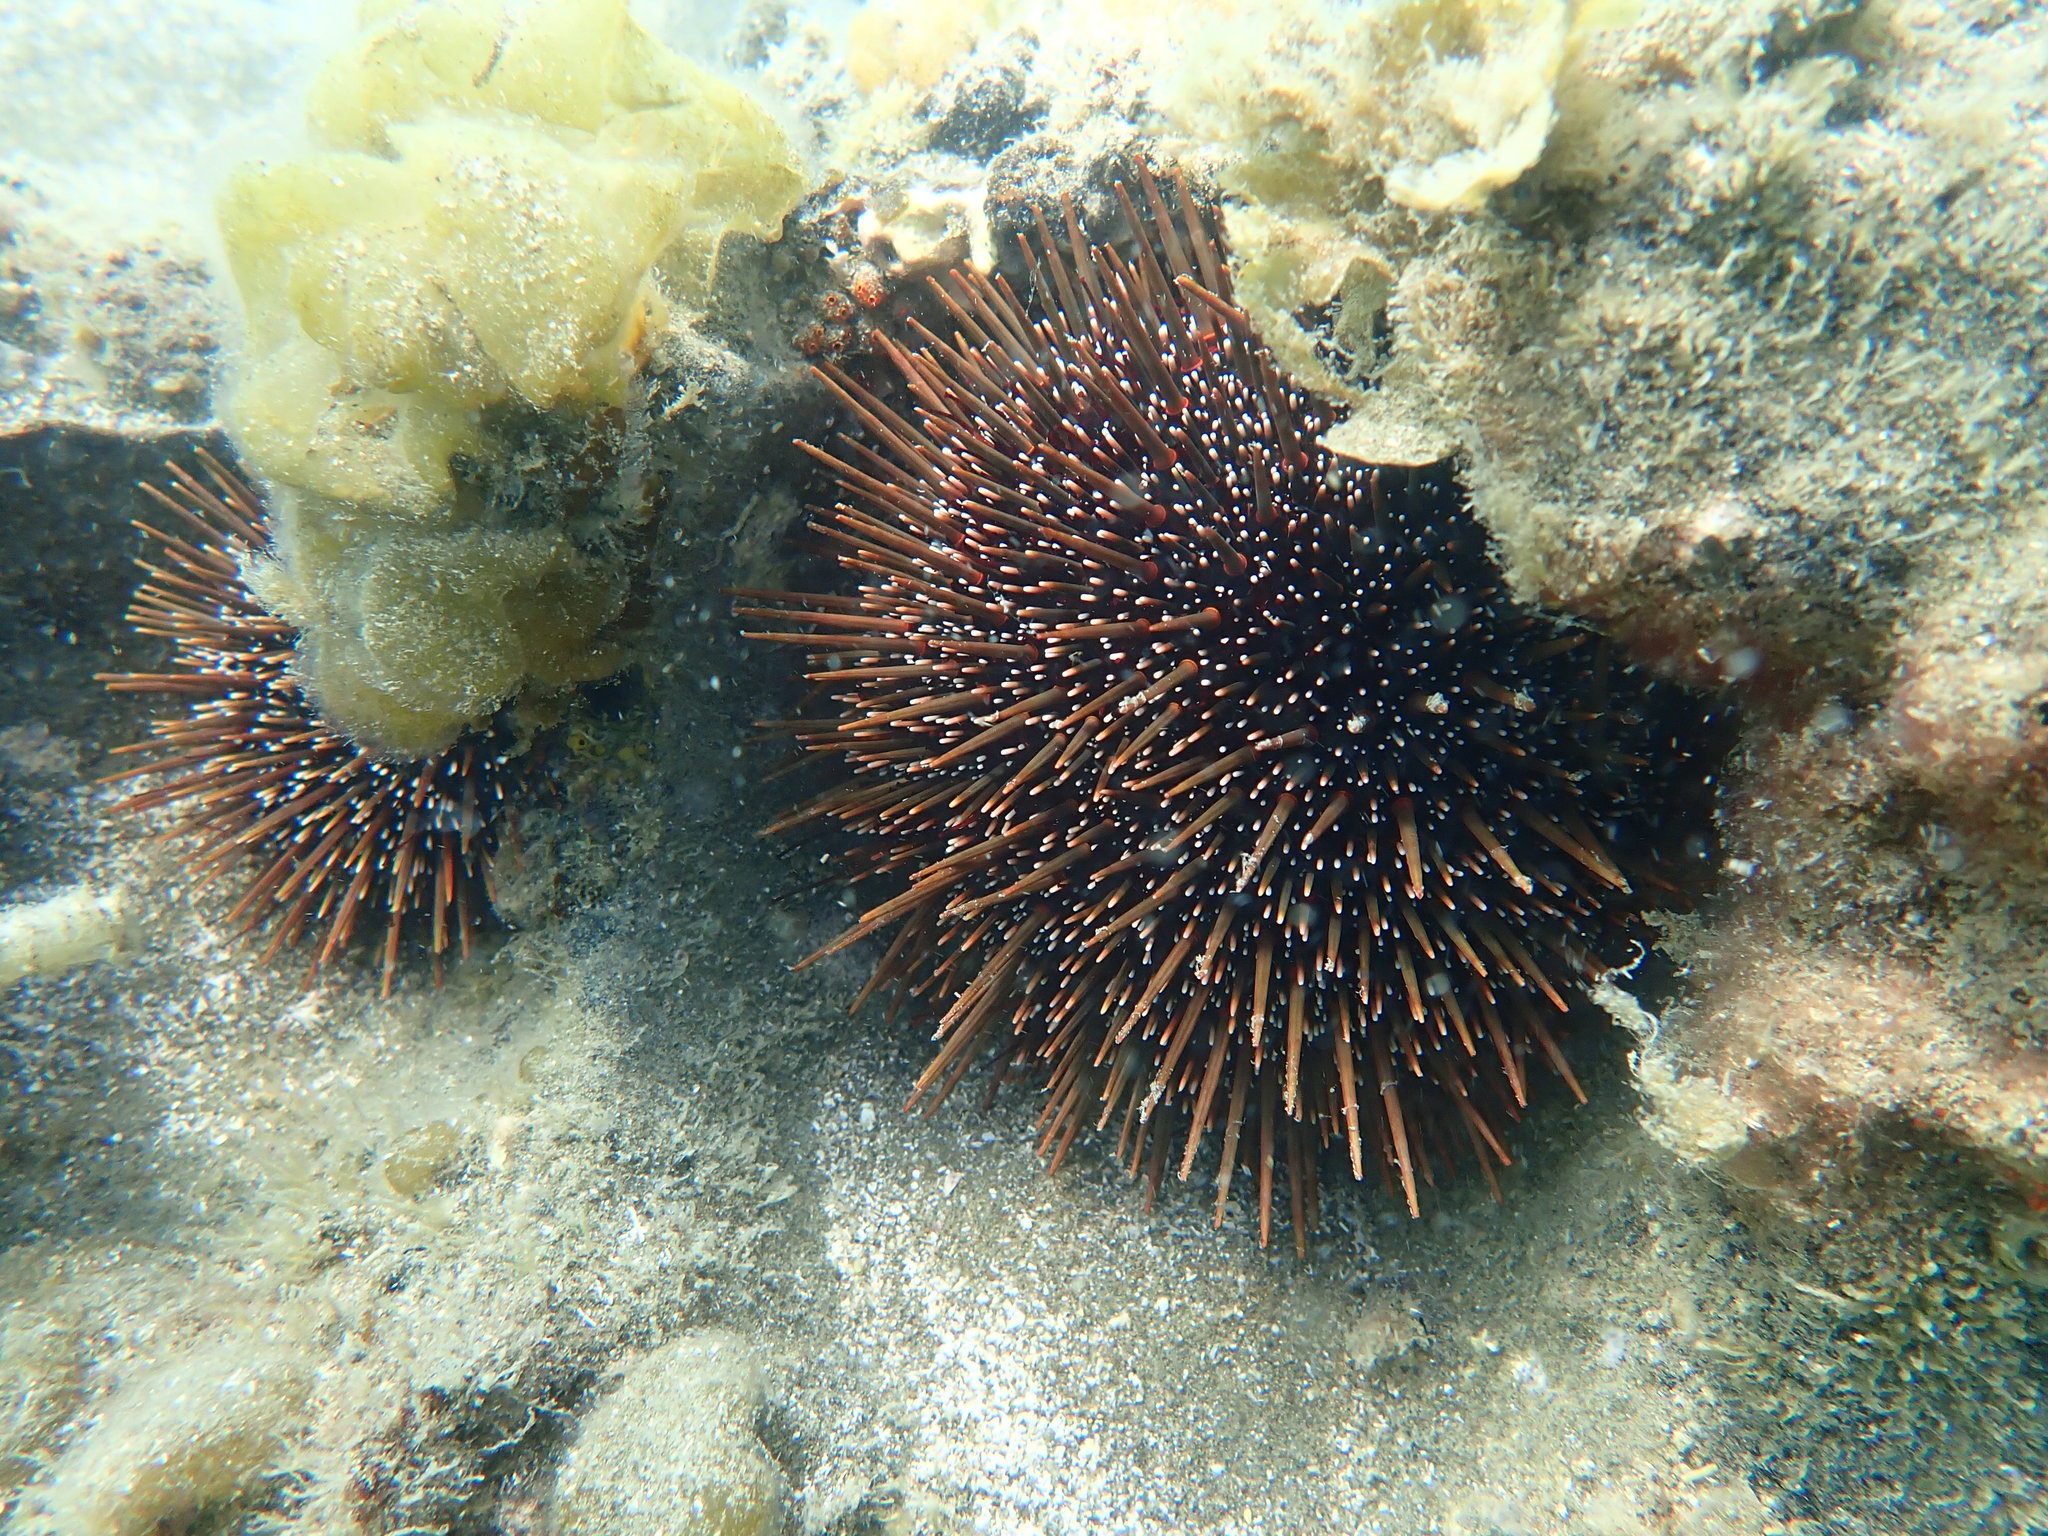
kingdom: Animalia
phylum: Echinodermata
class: Echinoidea
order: Camarodonta
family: Echinometridae
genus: Evechinus
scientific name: Evechinus chloroticus
